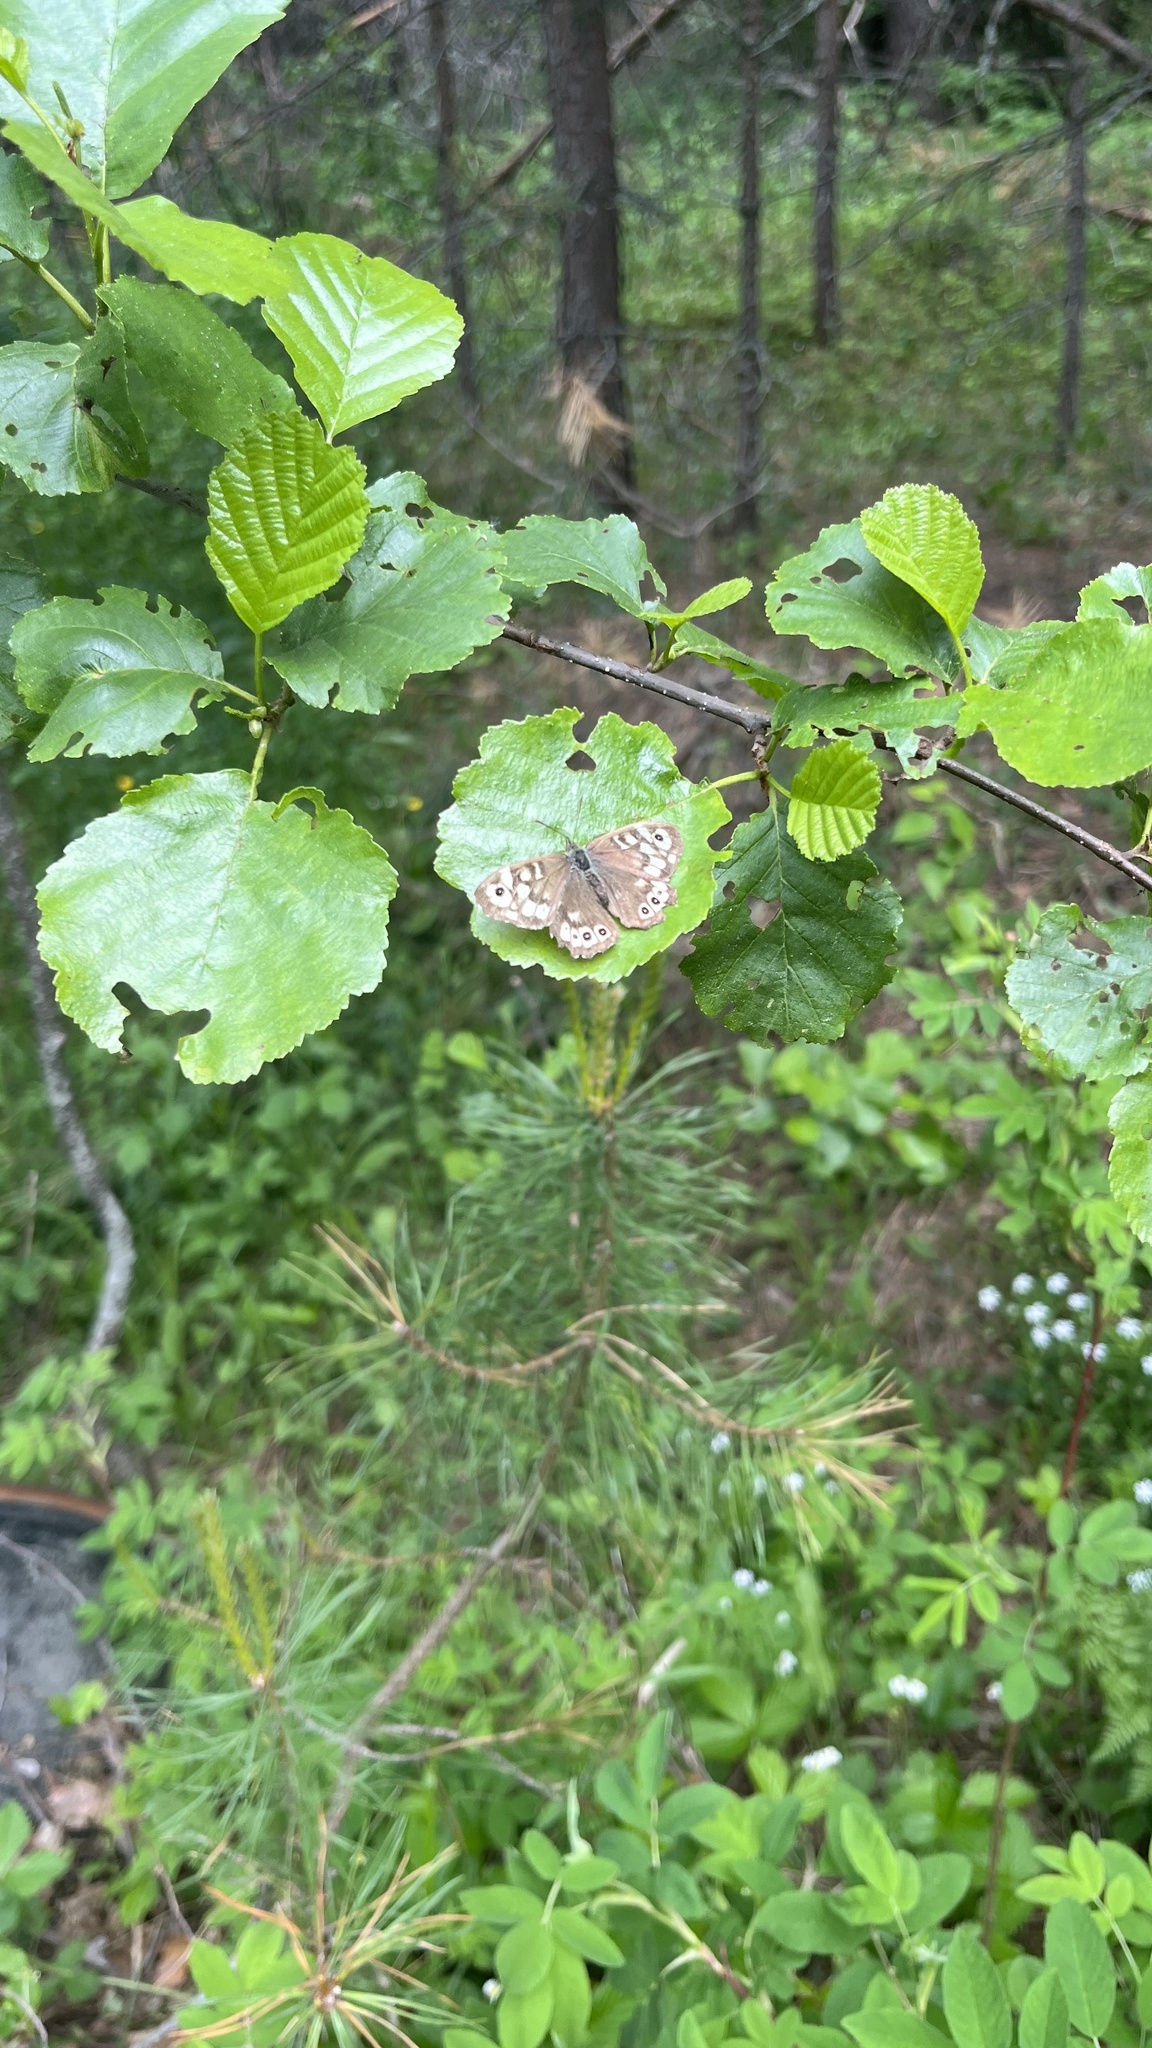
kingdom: Animalia
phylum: Arthropoda
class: Insecta
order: Lepidoptera
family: Nymphalidae
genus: Pararge
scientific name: Pararge aegeria
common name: Speckled wood
